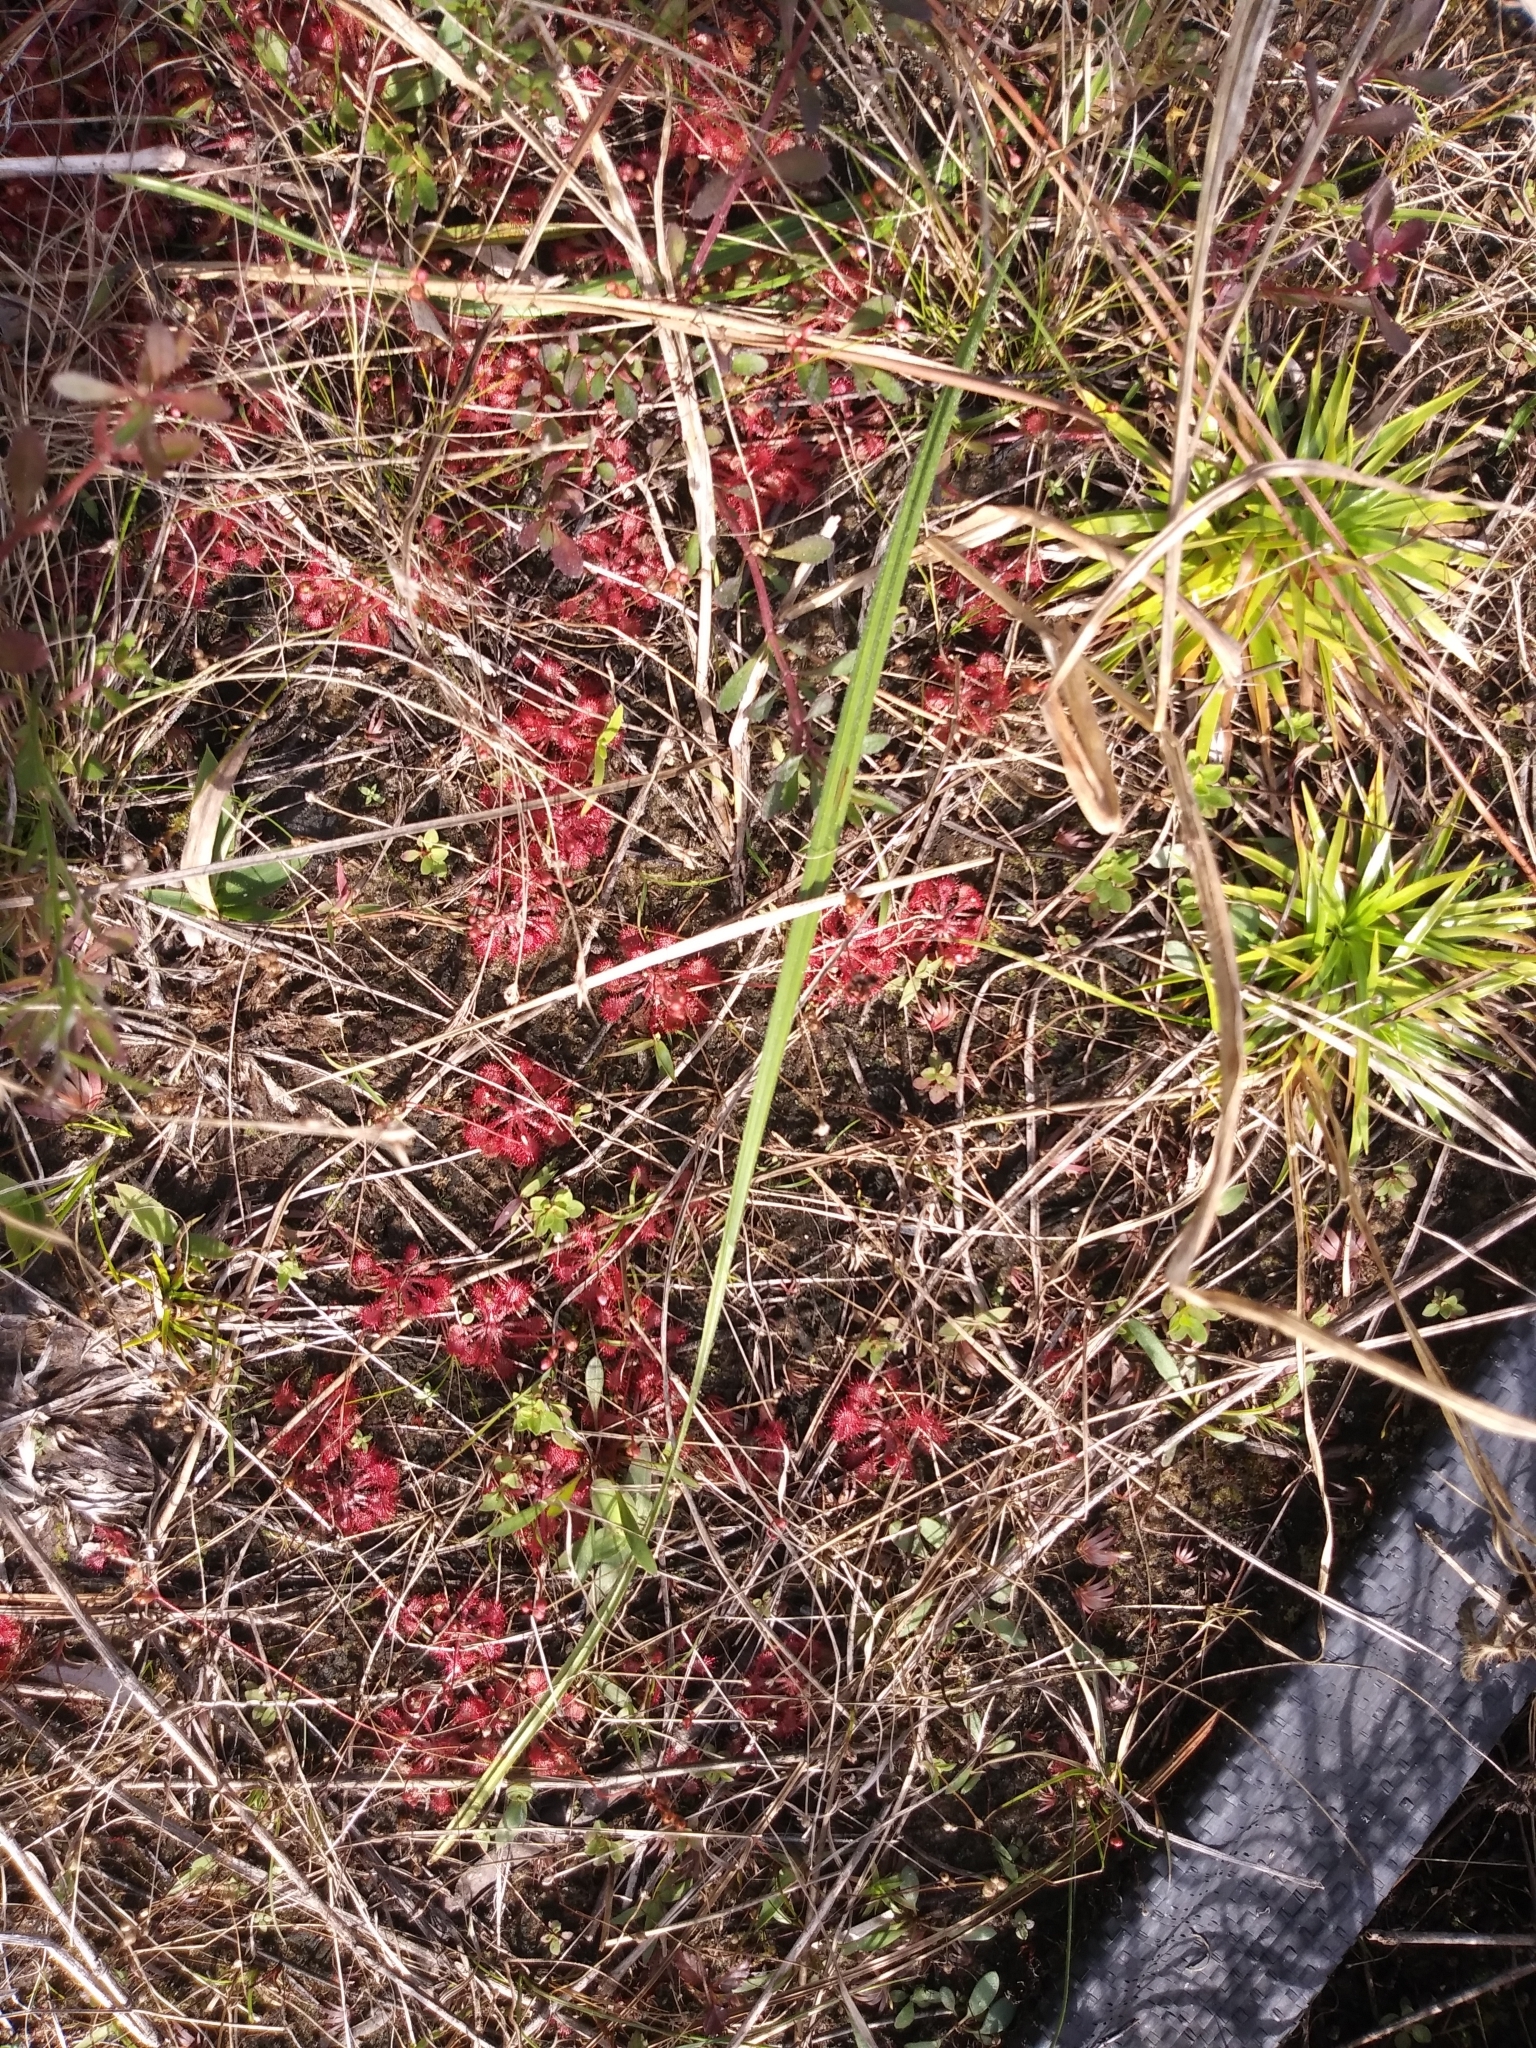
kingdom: Plantae
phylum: Tracheophyta
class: Magnoliopsida
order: Caryophyllales
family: Droseraceae
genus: Drosera
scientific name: Drosera capillaris
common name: Pink sundew
